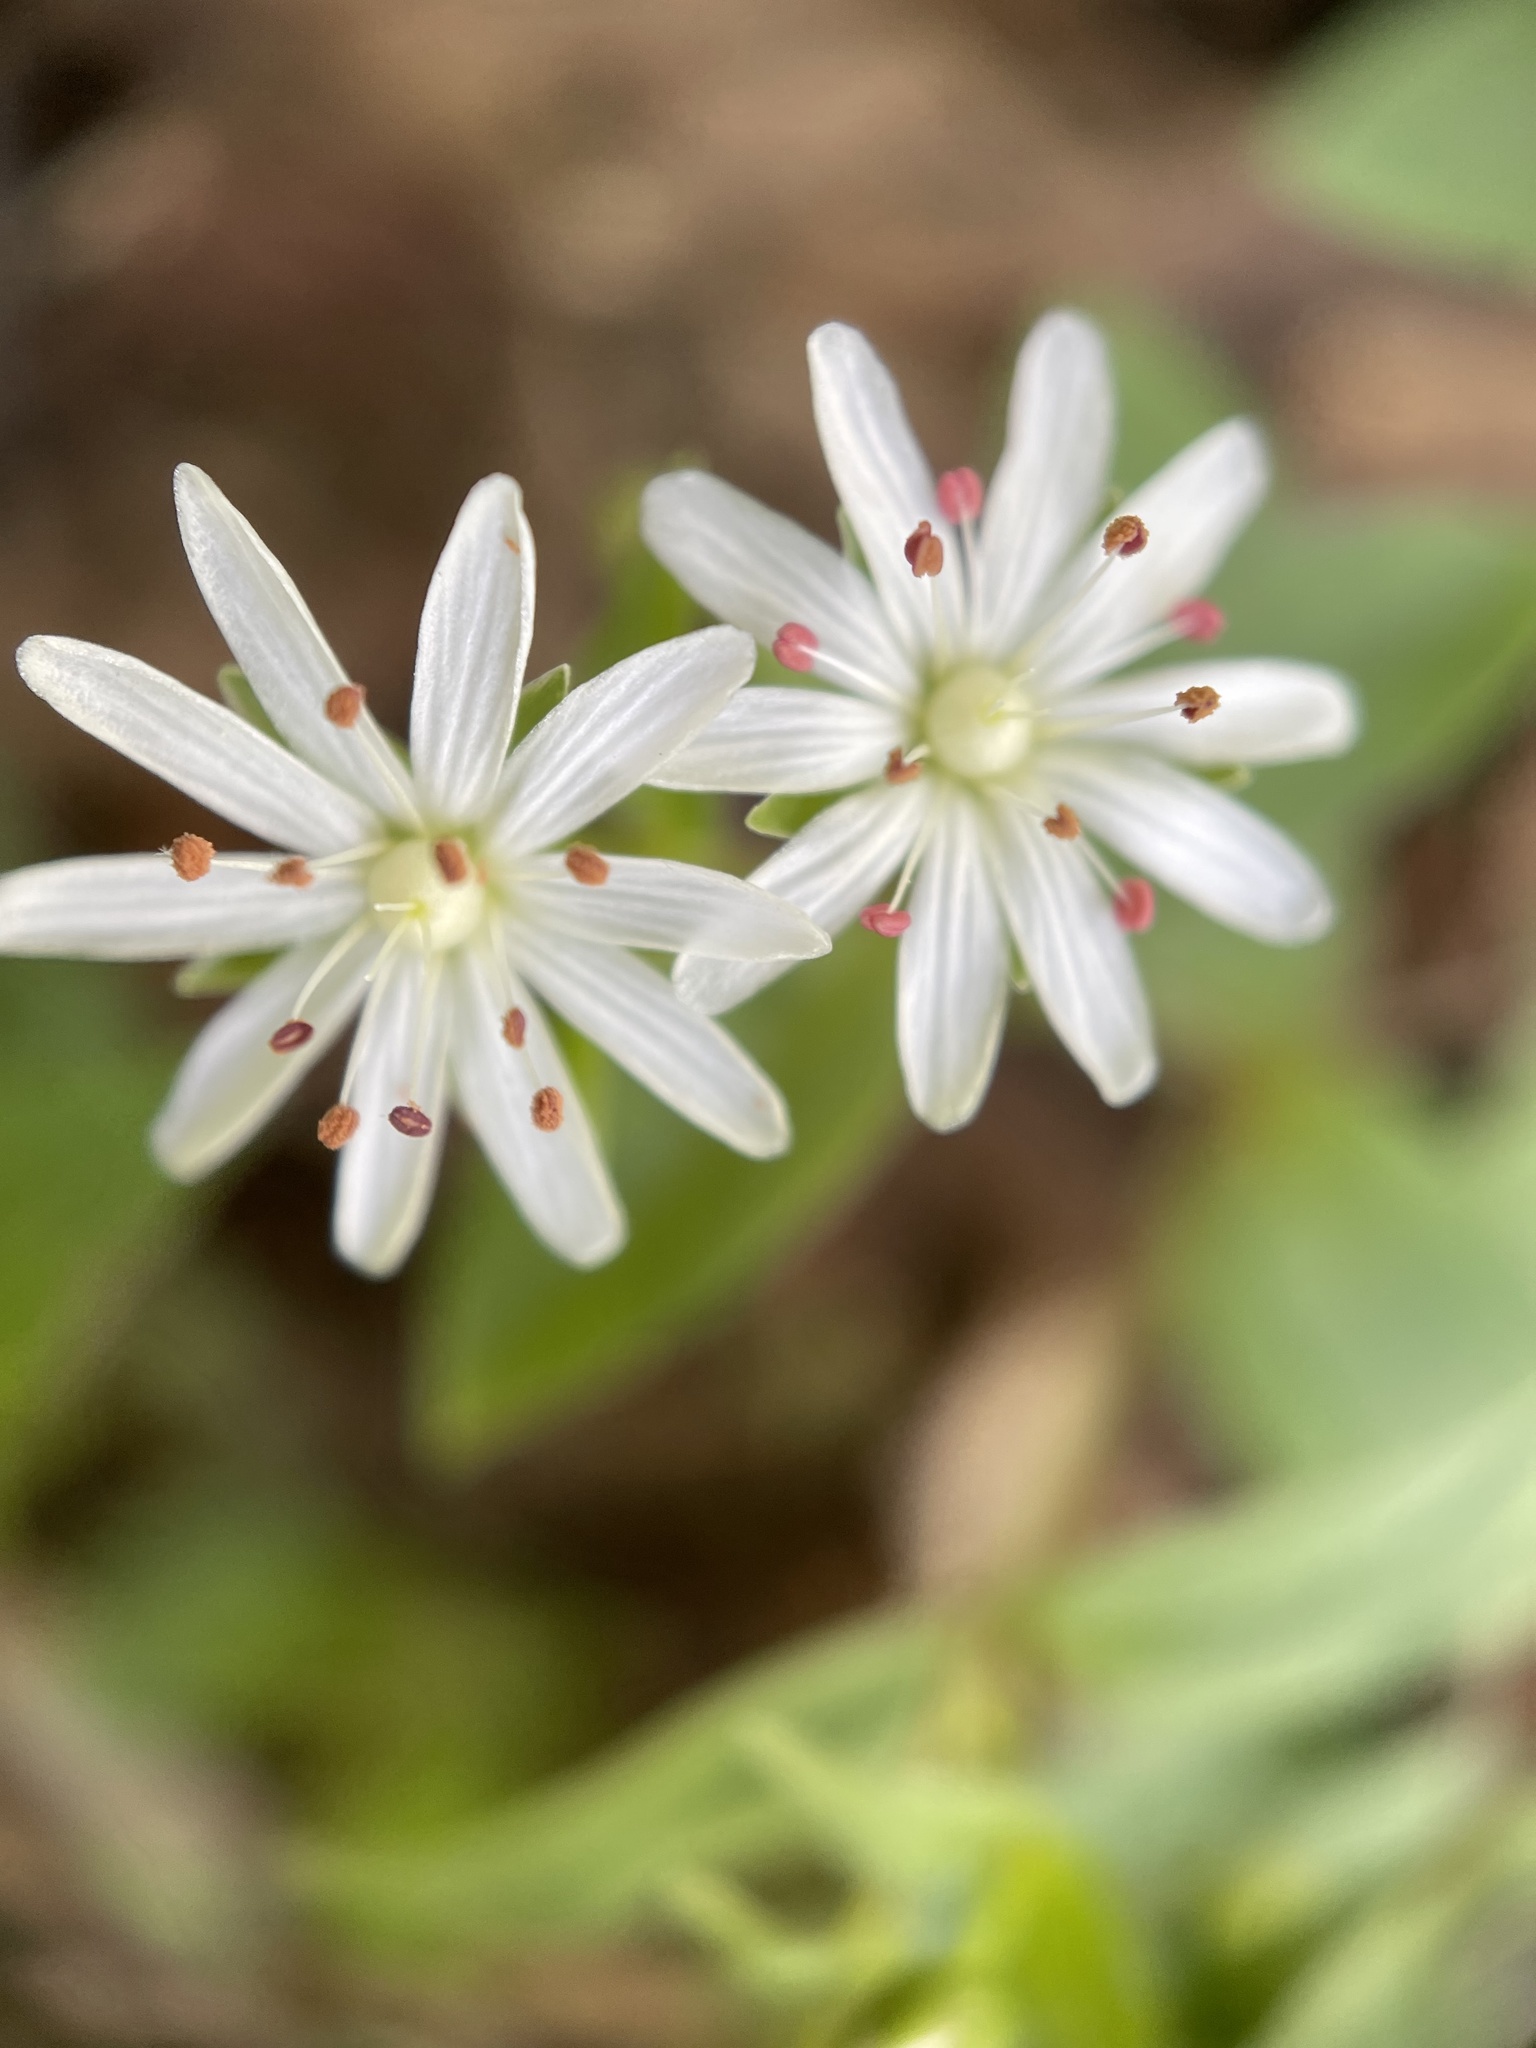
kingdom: Plantae
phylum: Tracheophyta
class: Magnoliopsida
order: Caryophyllales
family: Caryophyllaceae
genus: Stellaria
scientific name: Stellaria pubera
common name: Star chickweed
